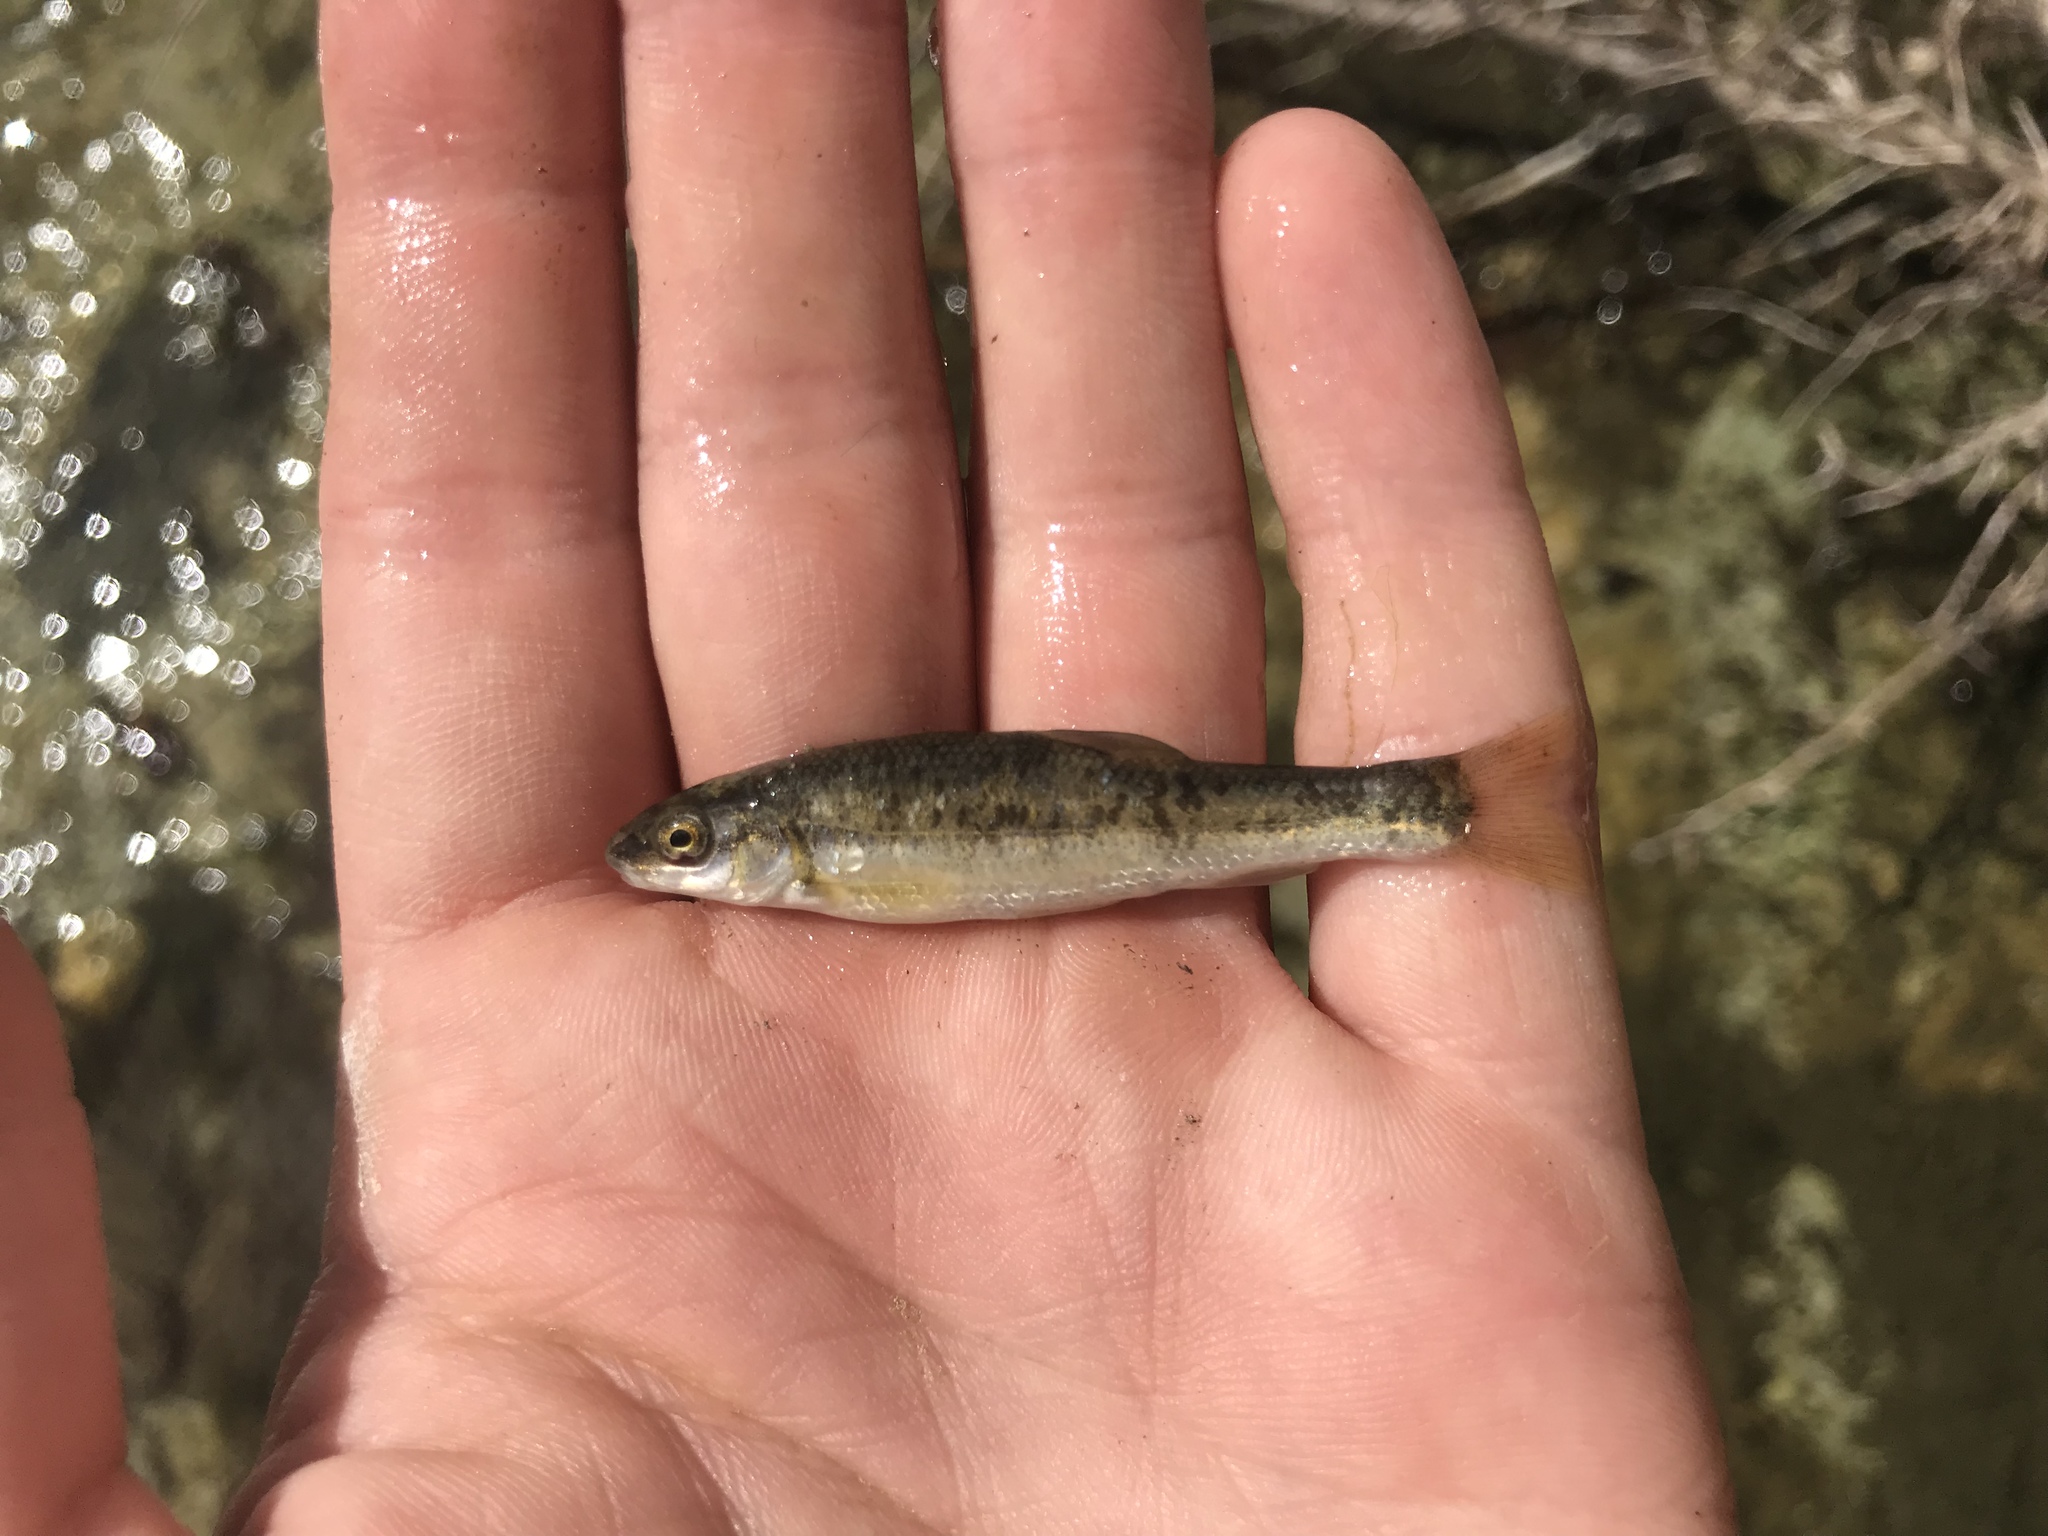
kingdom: Animalia
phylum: Chordata
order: Cypriniformes
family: Cyprinidae
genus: Campostoma
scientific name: Campostoma anomalum
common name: Central stoneroller
